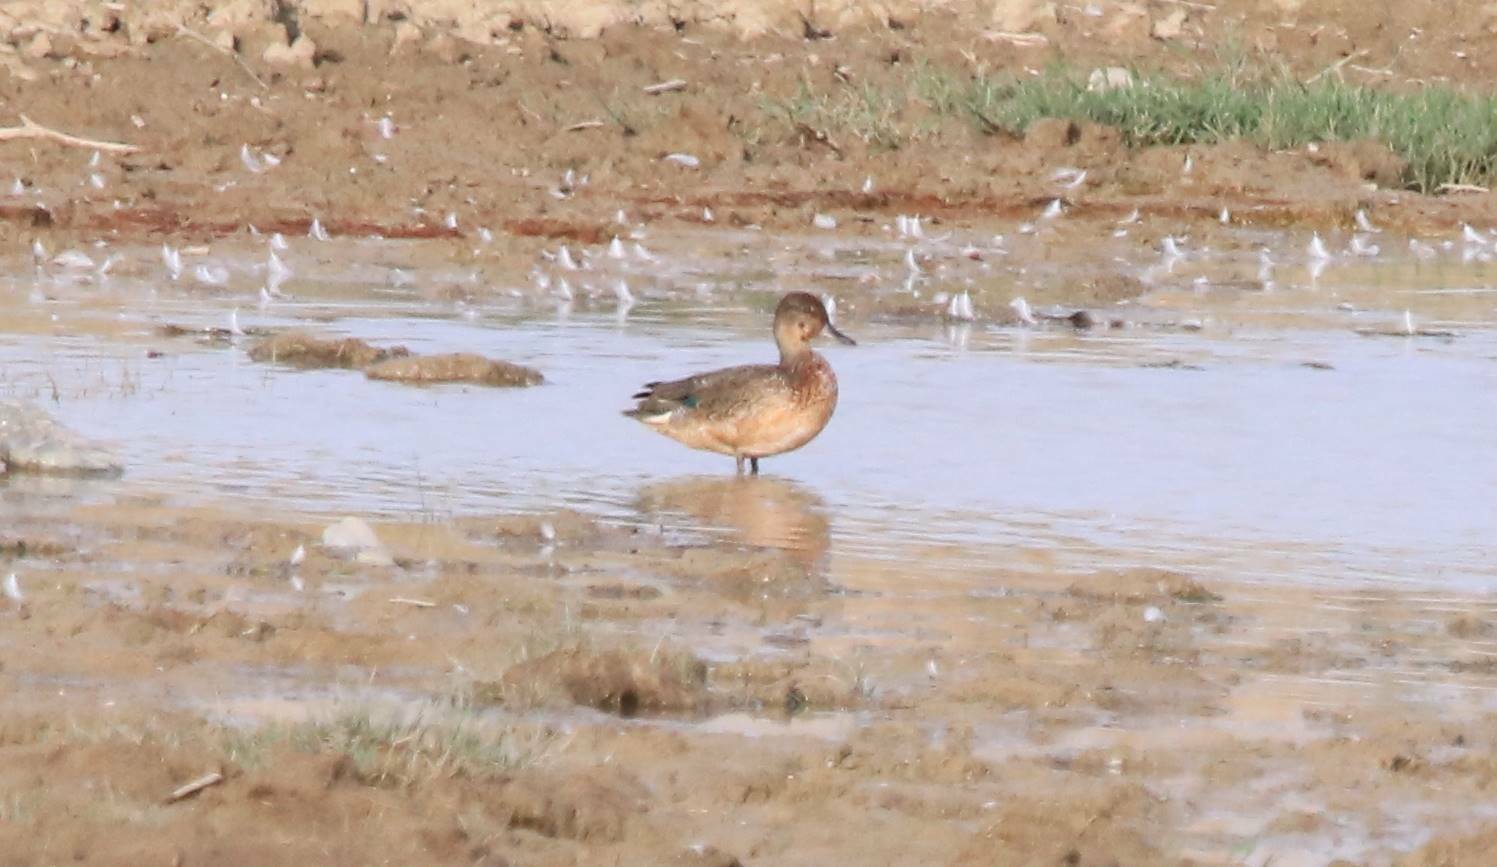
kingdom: Animalia
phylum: Chordata
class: Aves
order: Anseriformes
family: Anatidae
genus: Anas
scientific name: Anas crecca
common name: Eurasian teal
